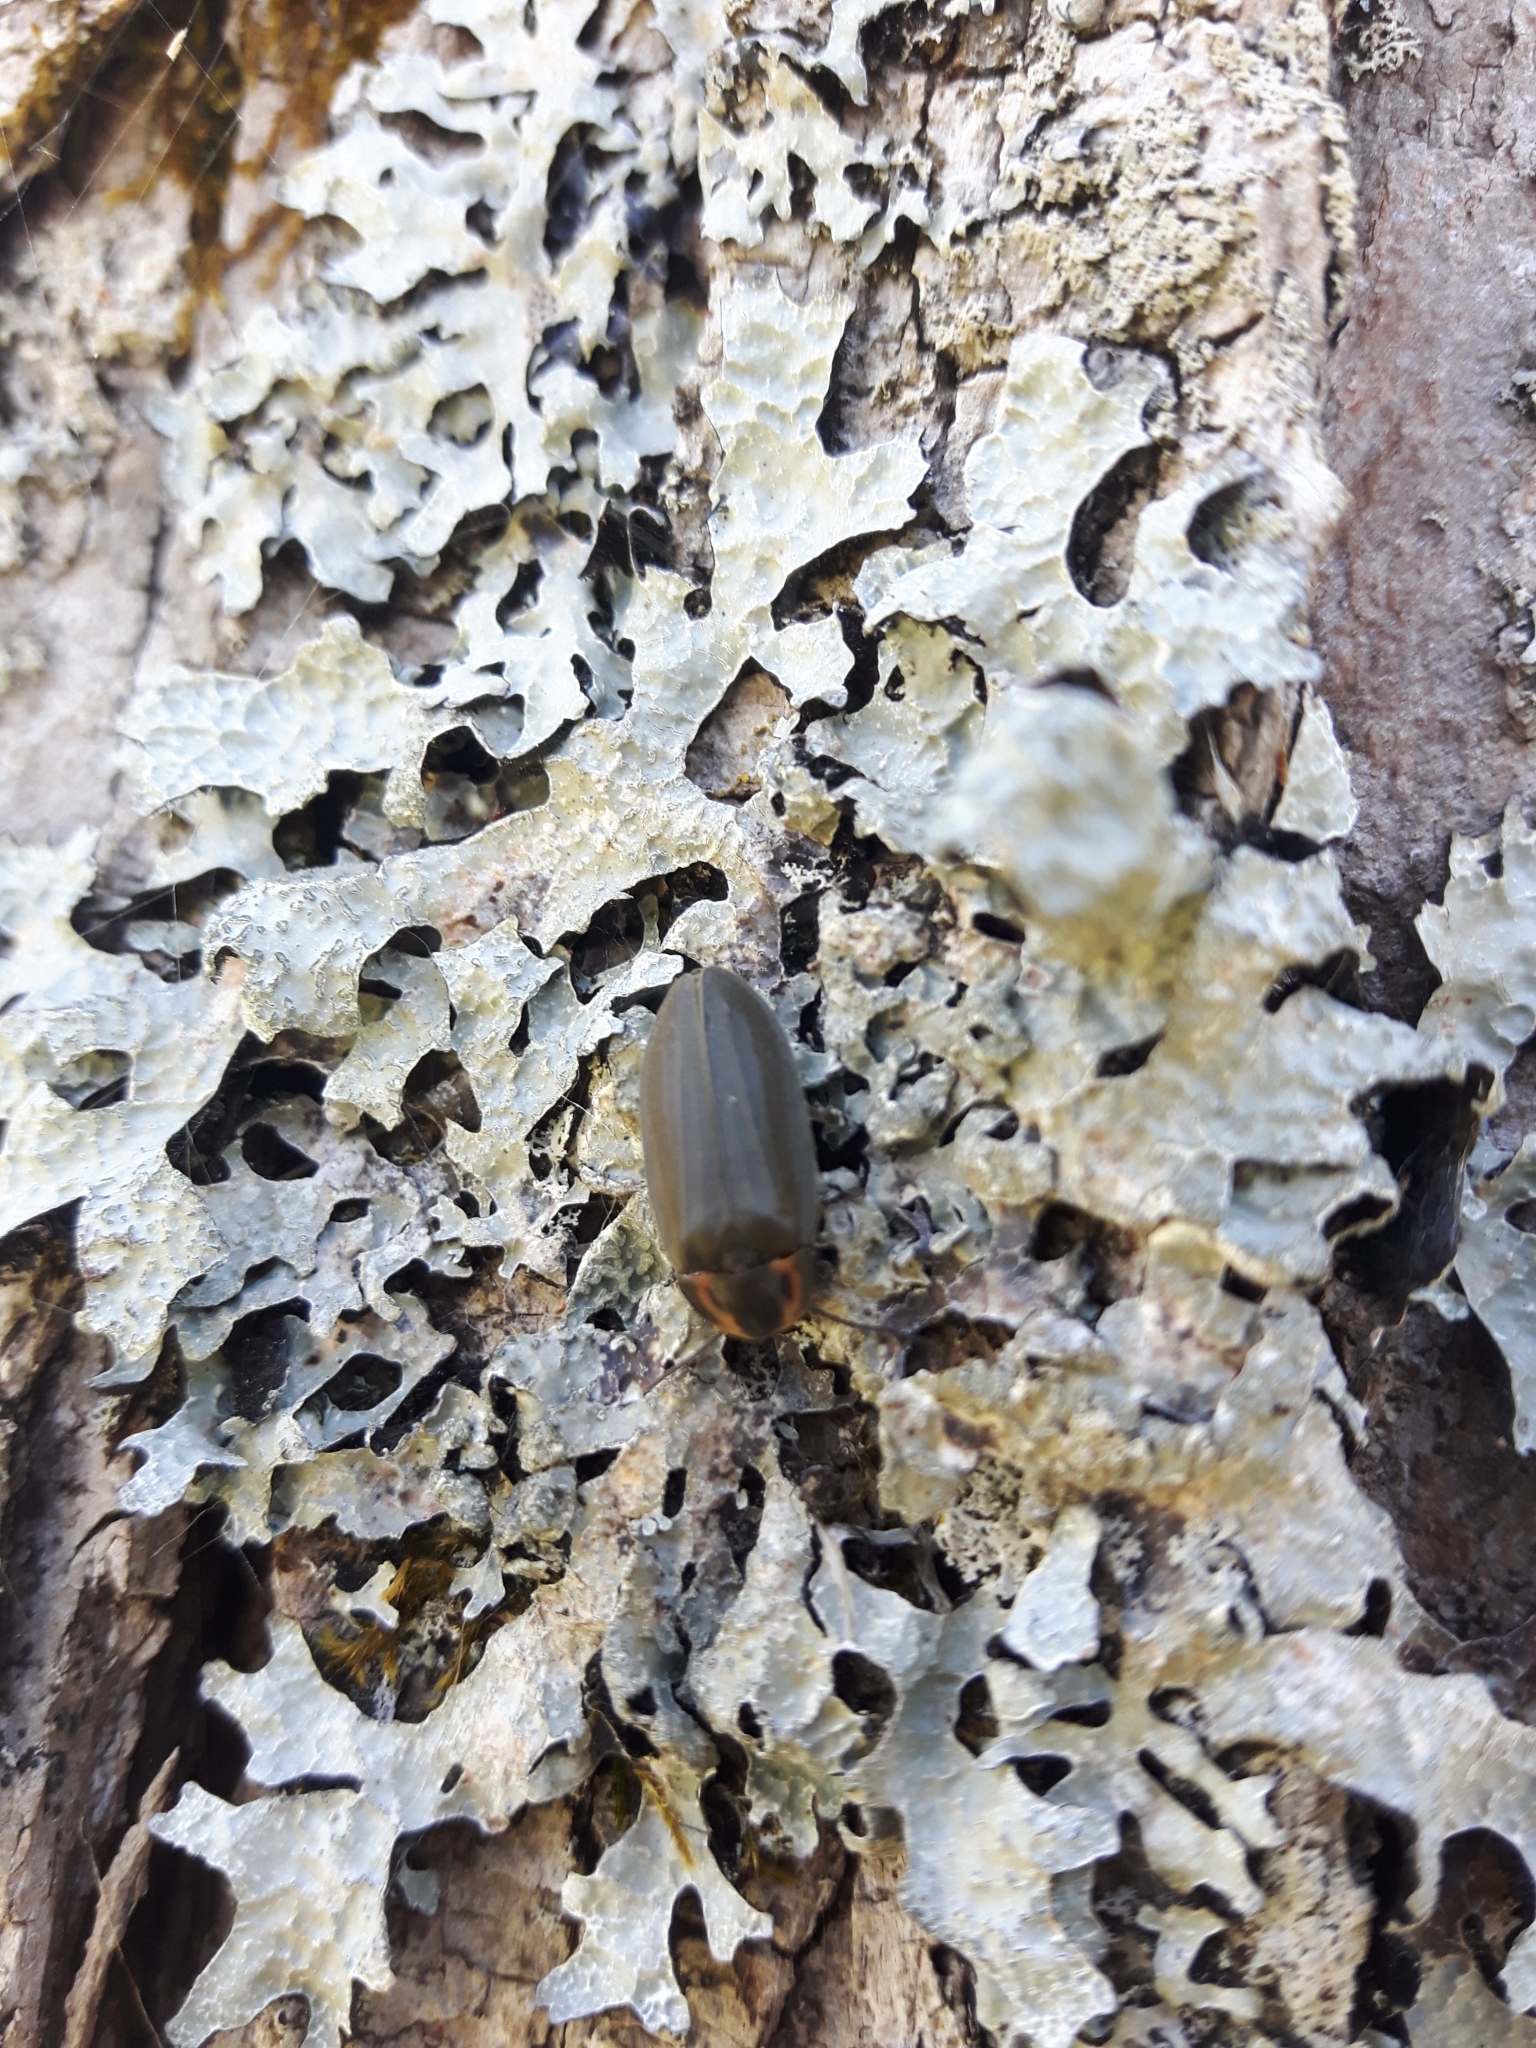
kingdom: Animalia
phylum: Arthropoda
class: Insecta
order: Coleoptera
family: Lampyridae
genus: Photinus
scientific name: Photinus corrusca
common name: Winter firefly
